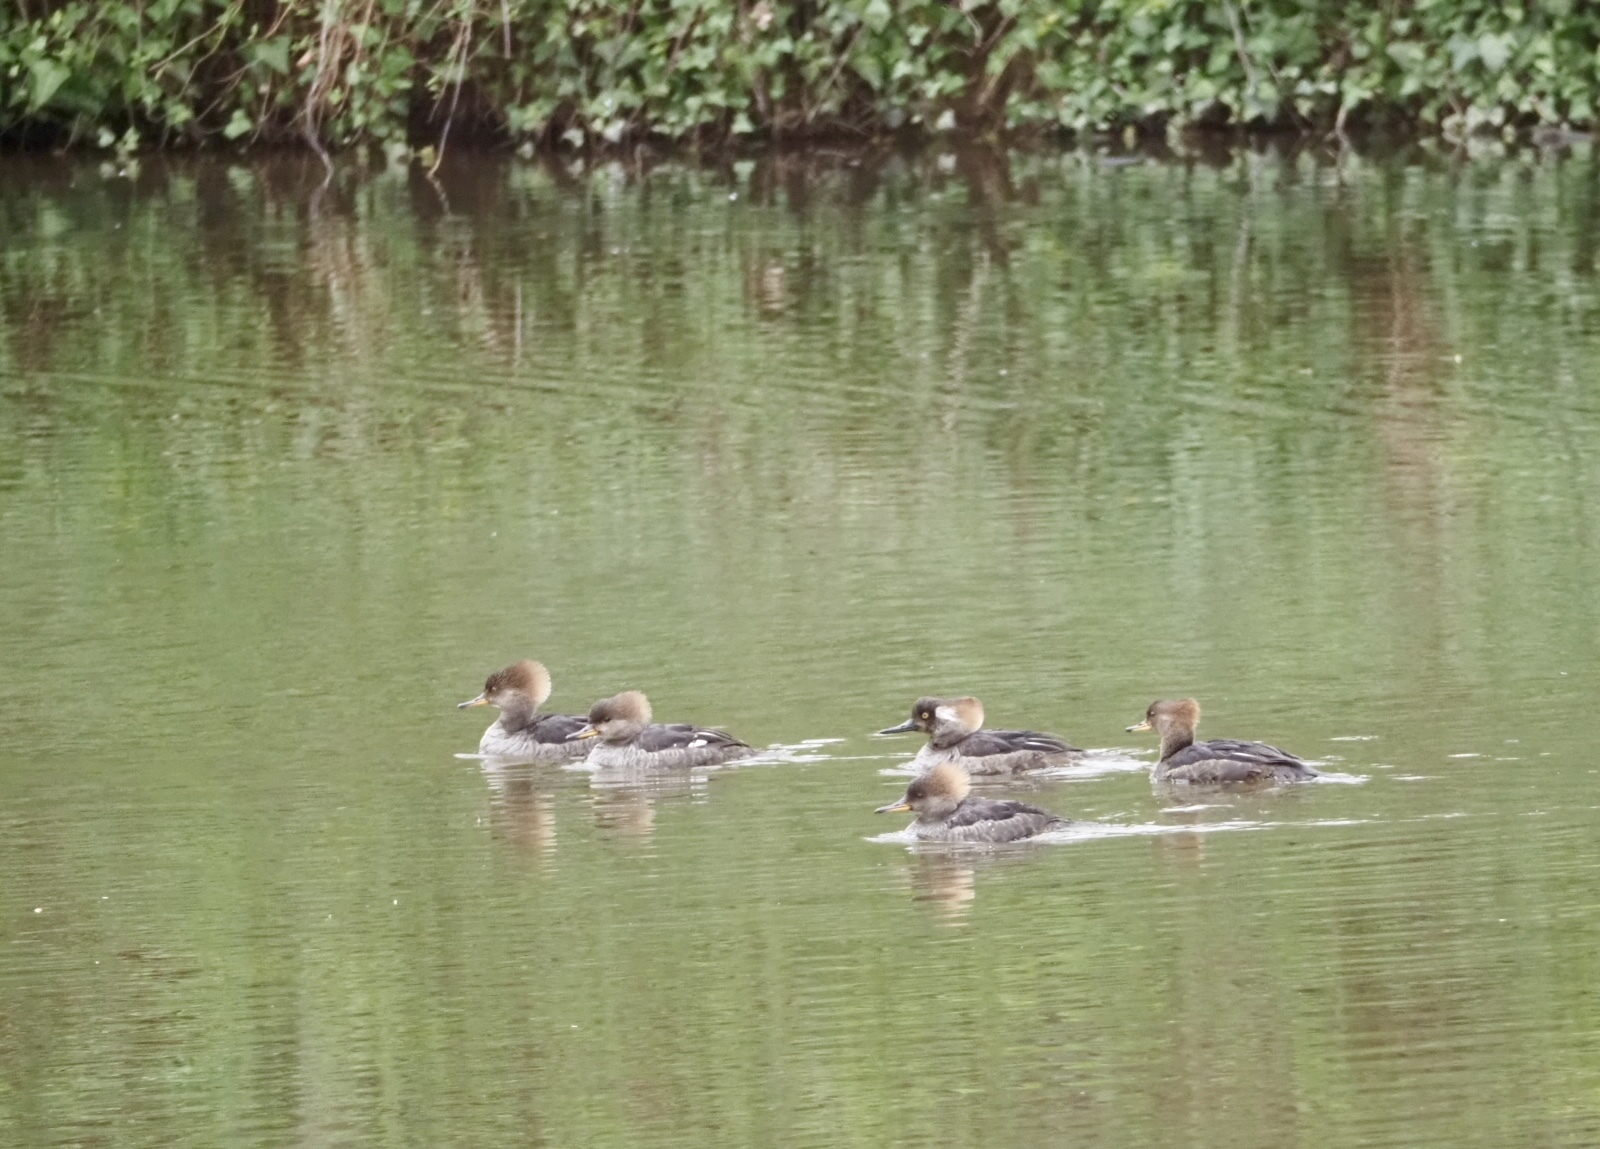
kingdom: Animalia
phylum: Chordata
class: Aves
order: Anseriformes
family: Anatidae
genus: Lophodytes
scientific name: Lophodytes cucullatus
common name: Hooded merganser
